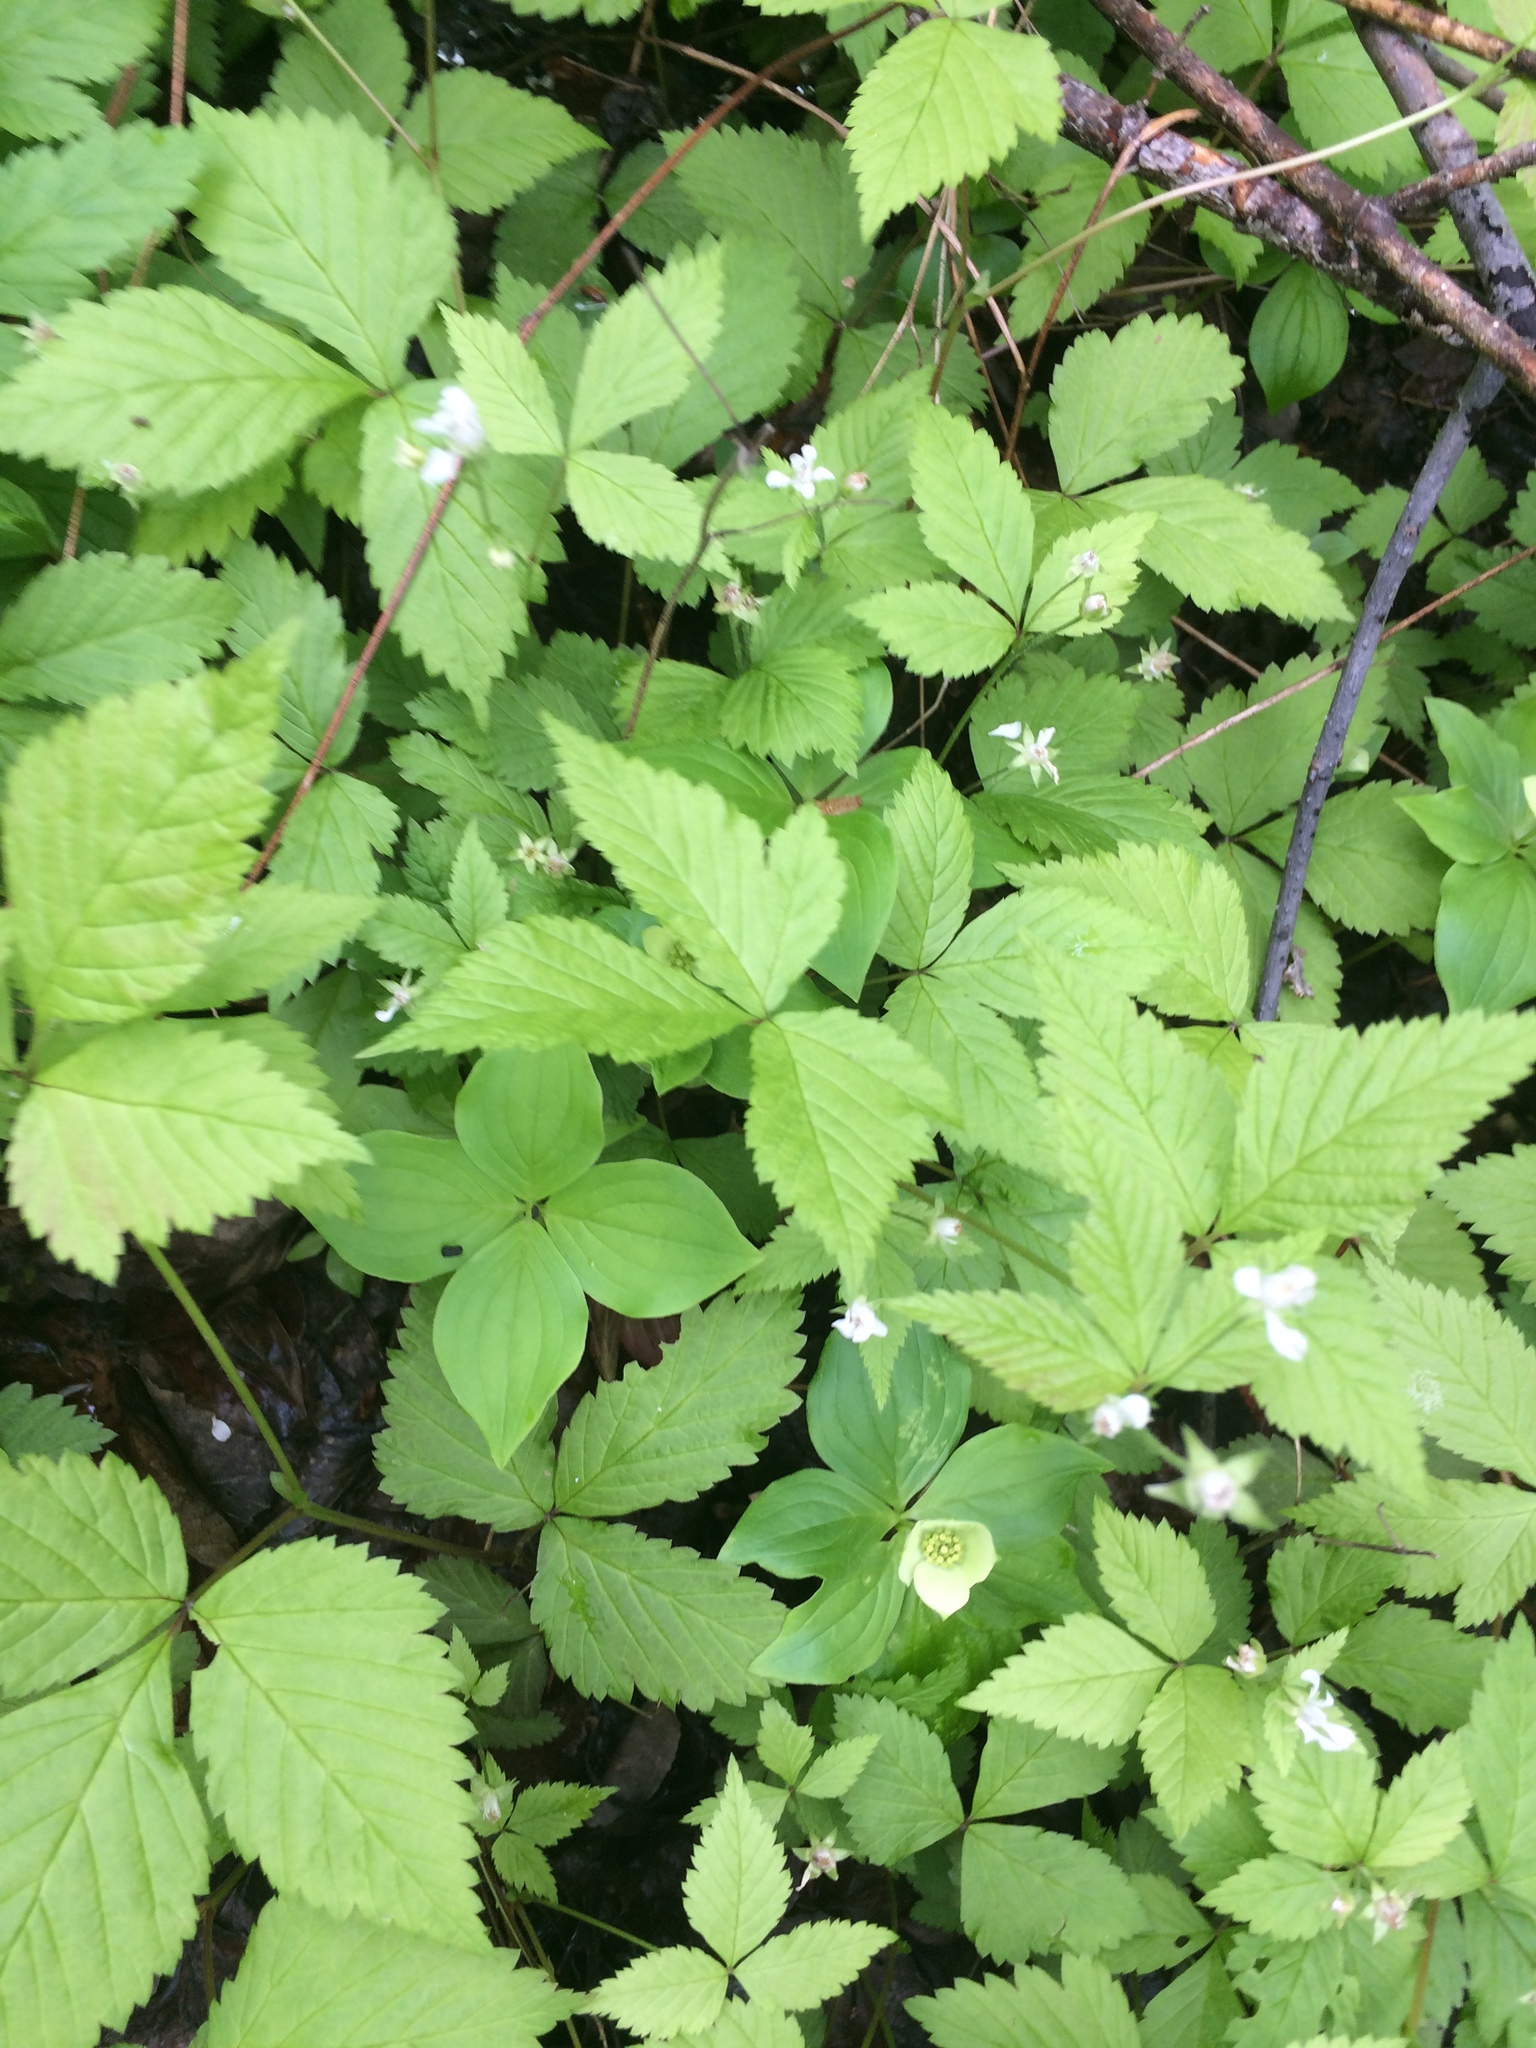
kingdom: Plantae
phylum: Tracheophyta
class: Magnoliopsida
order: Rosales
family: Rosaceae
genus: Rubus
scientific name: Rubus pubescens
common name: Dwarf raspberry
